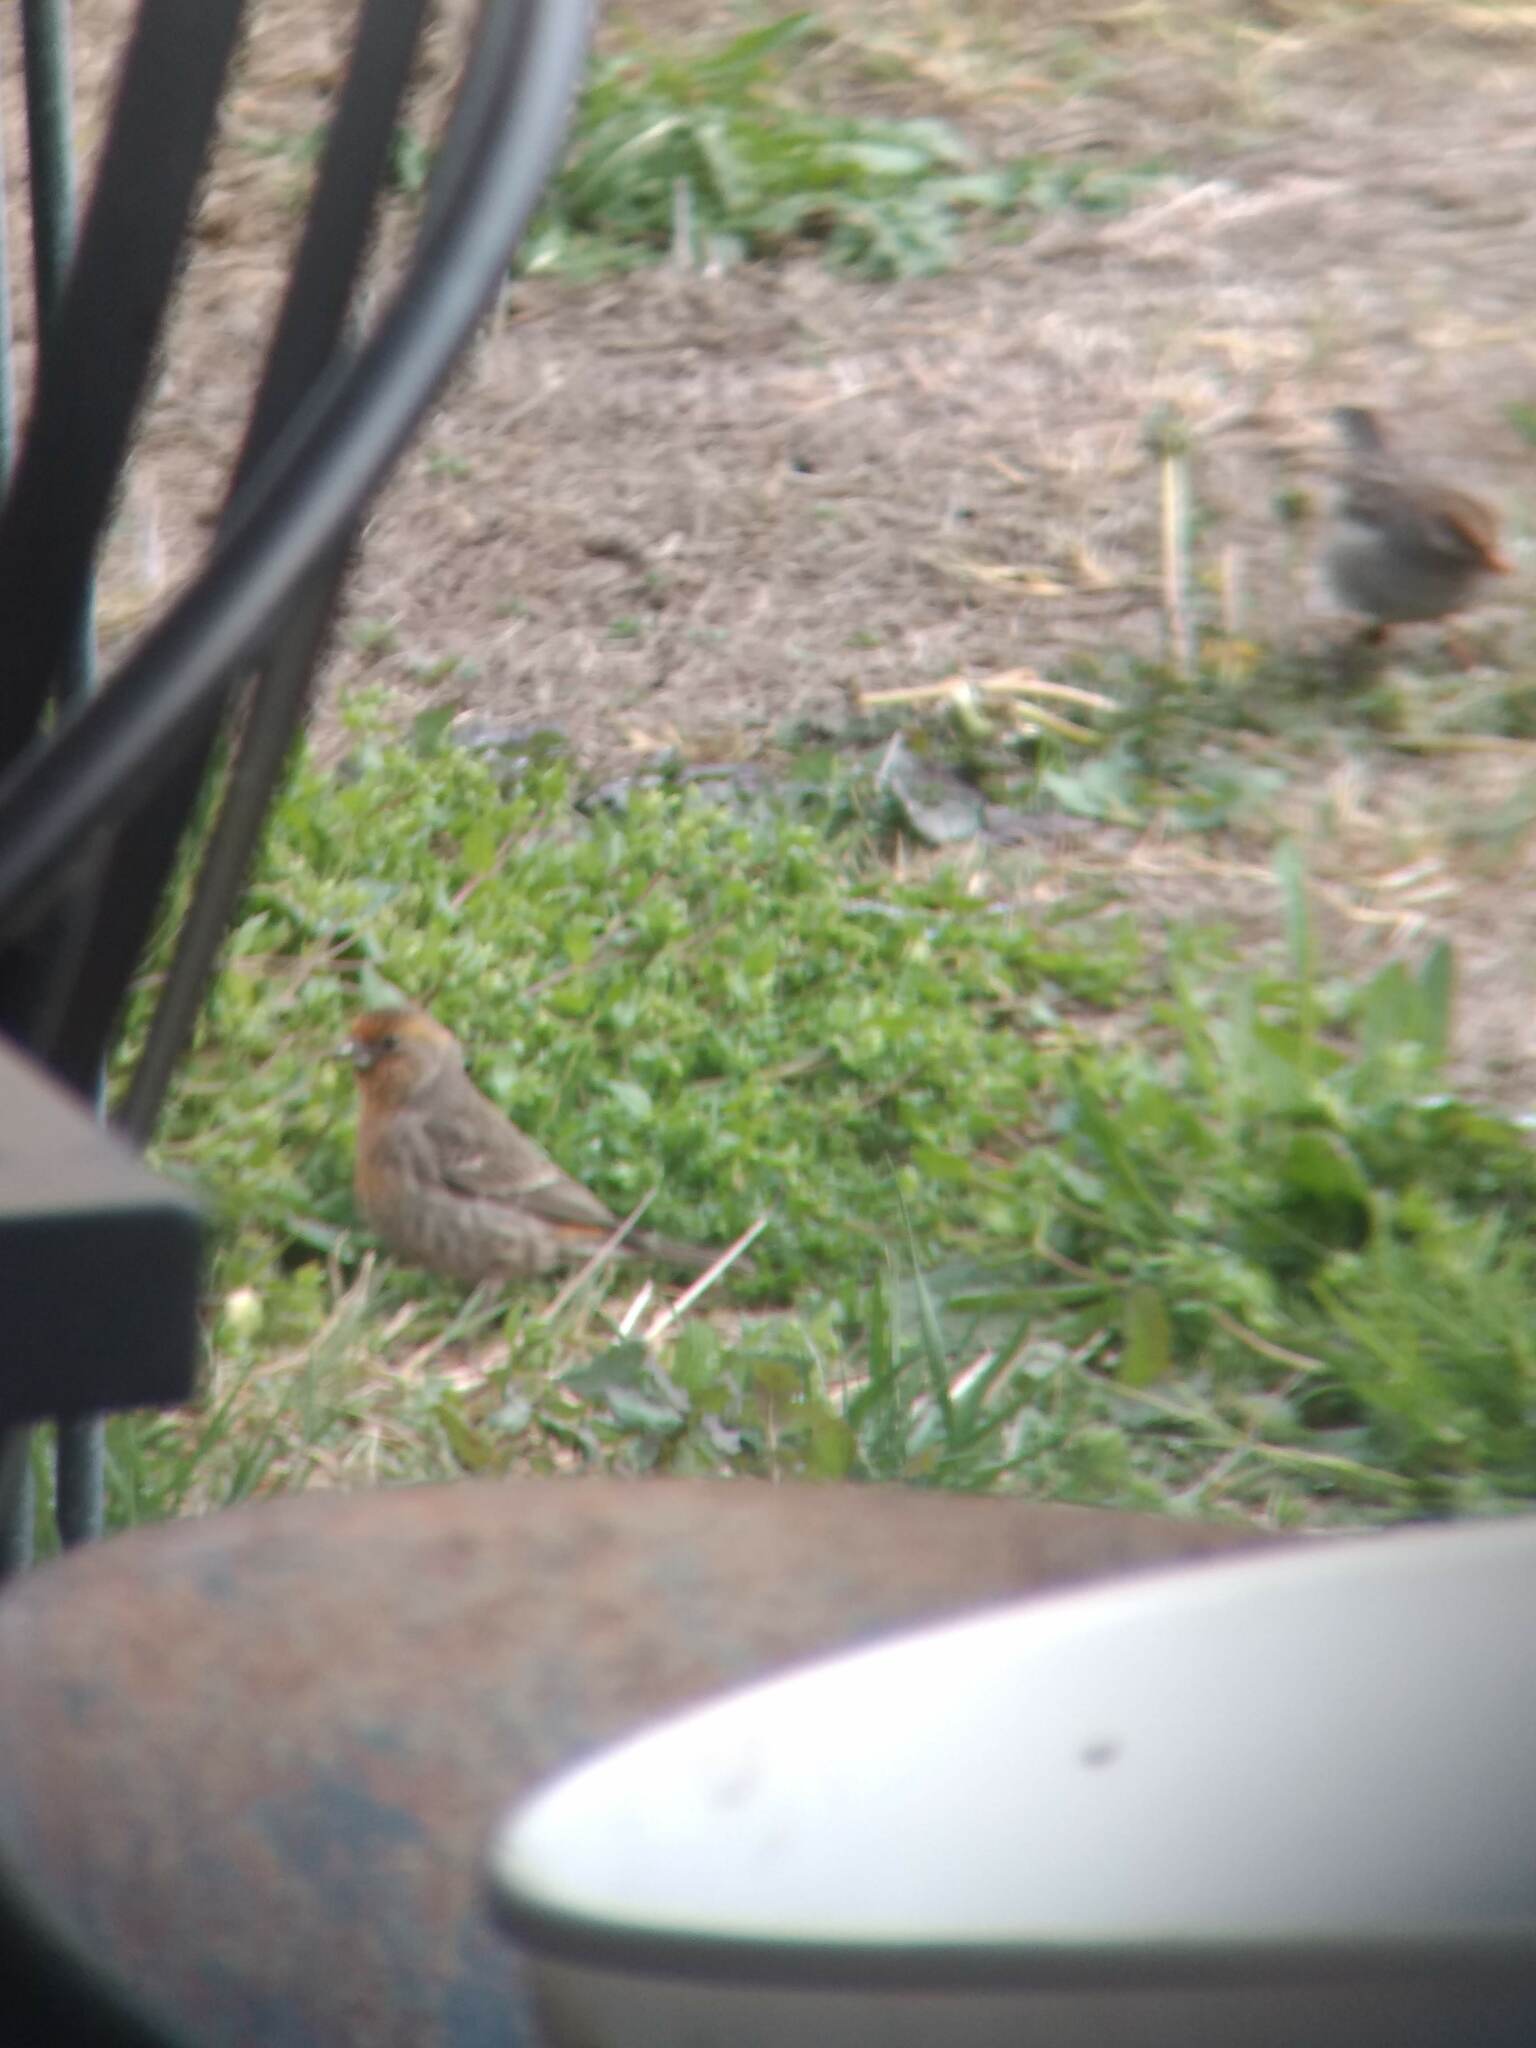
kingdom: Animalia
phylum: Chordata
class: Aves
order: Passeriformes
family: Fringillidae
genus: Haemorhous
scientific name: Haemorhous mexicanus
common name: House finch
